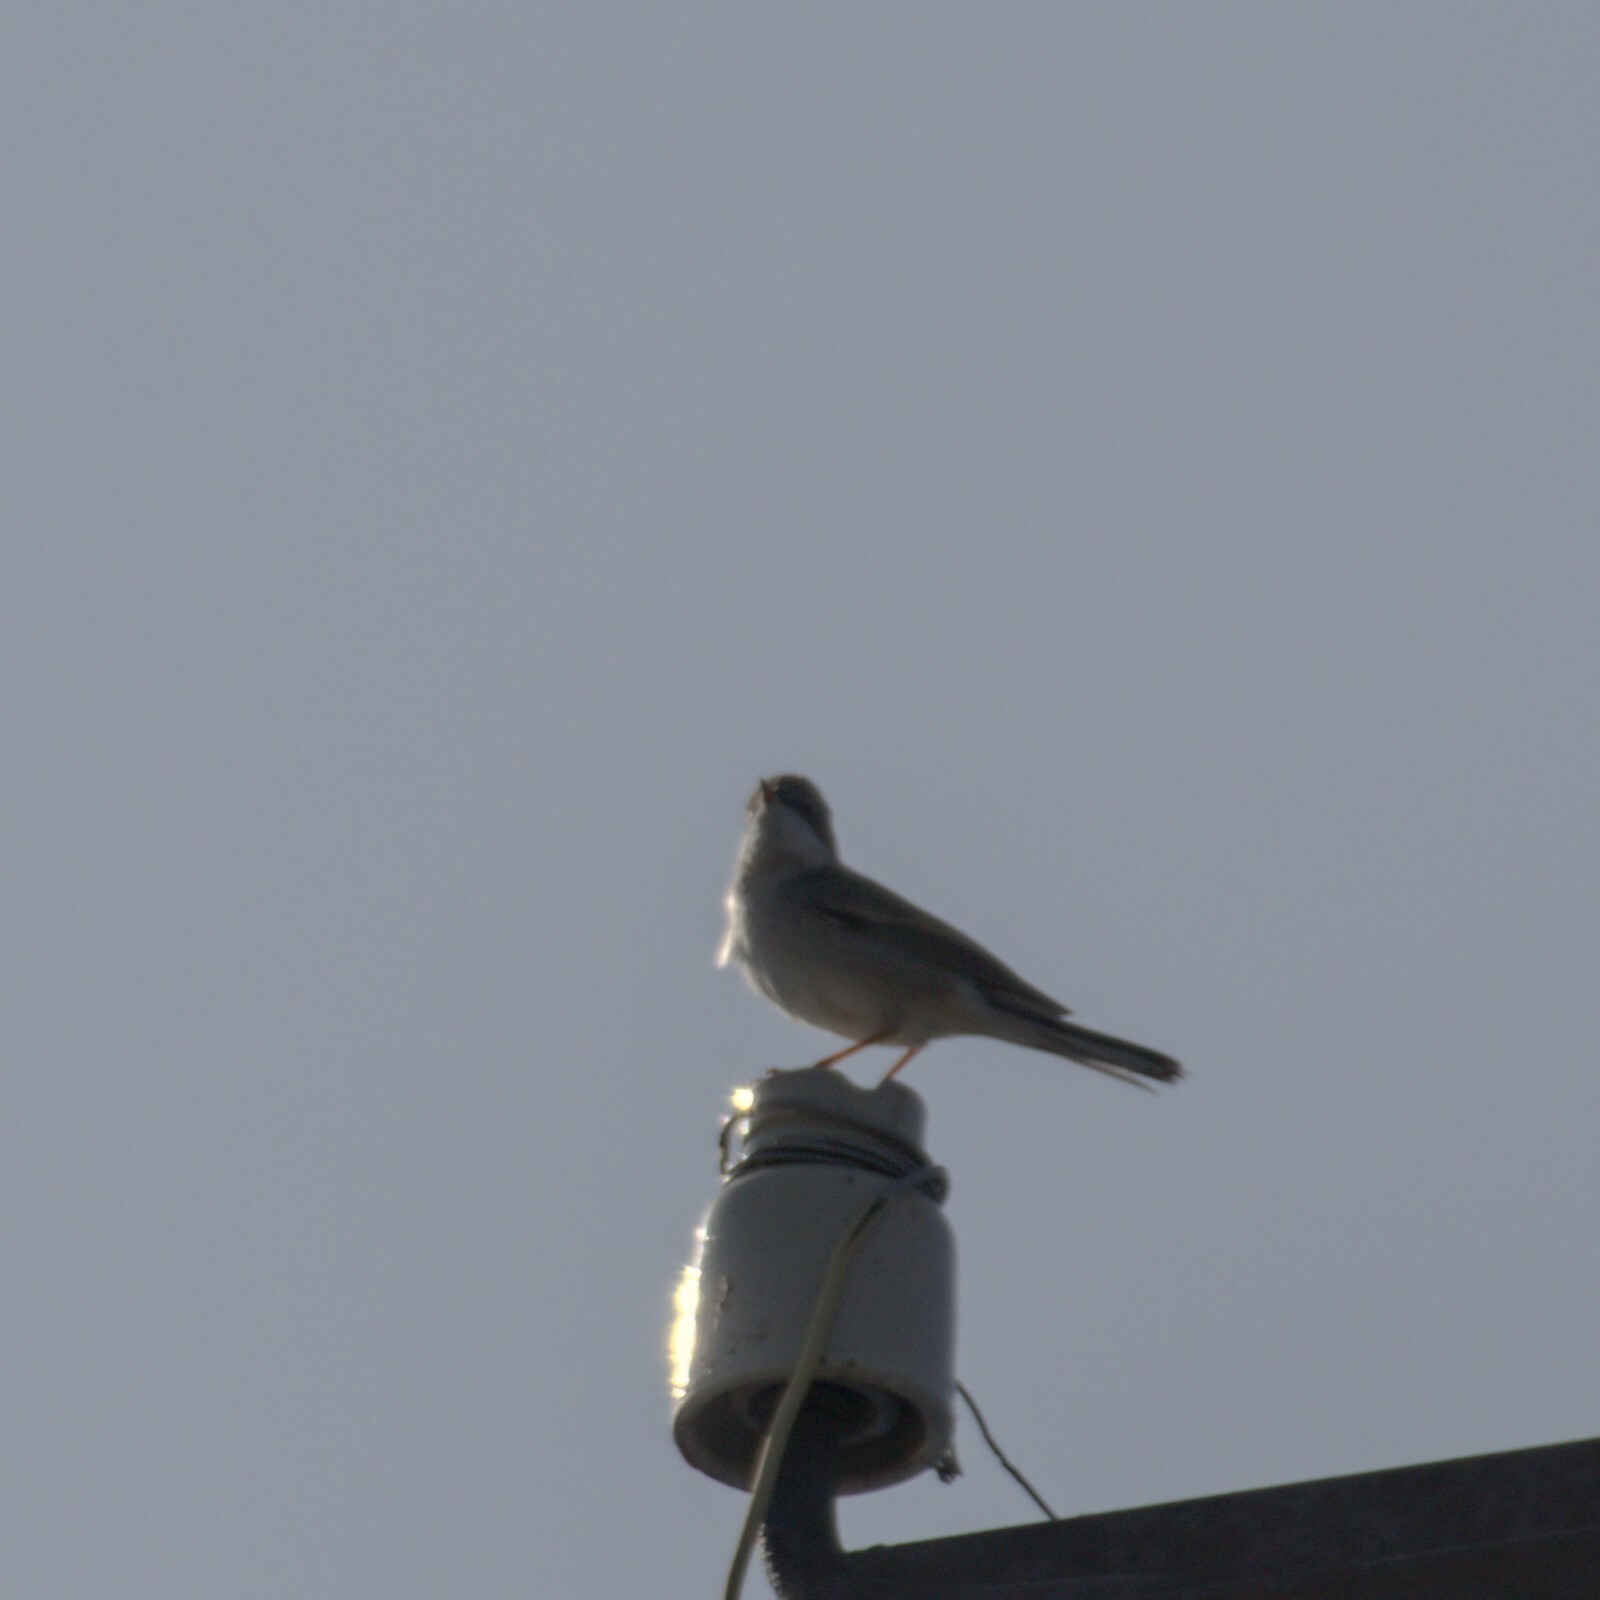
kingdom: Animalia
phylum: Chordata
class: Aves
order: Passeriformes
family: Sylviidae
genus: Sylvia
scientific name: Sylvia communis
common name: Common whitethroat
